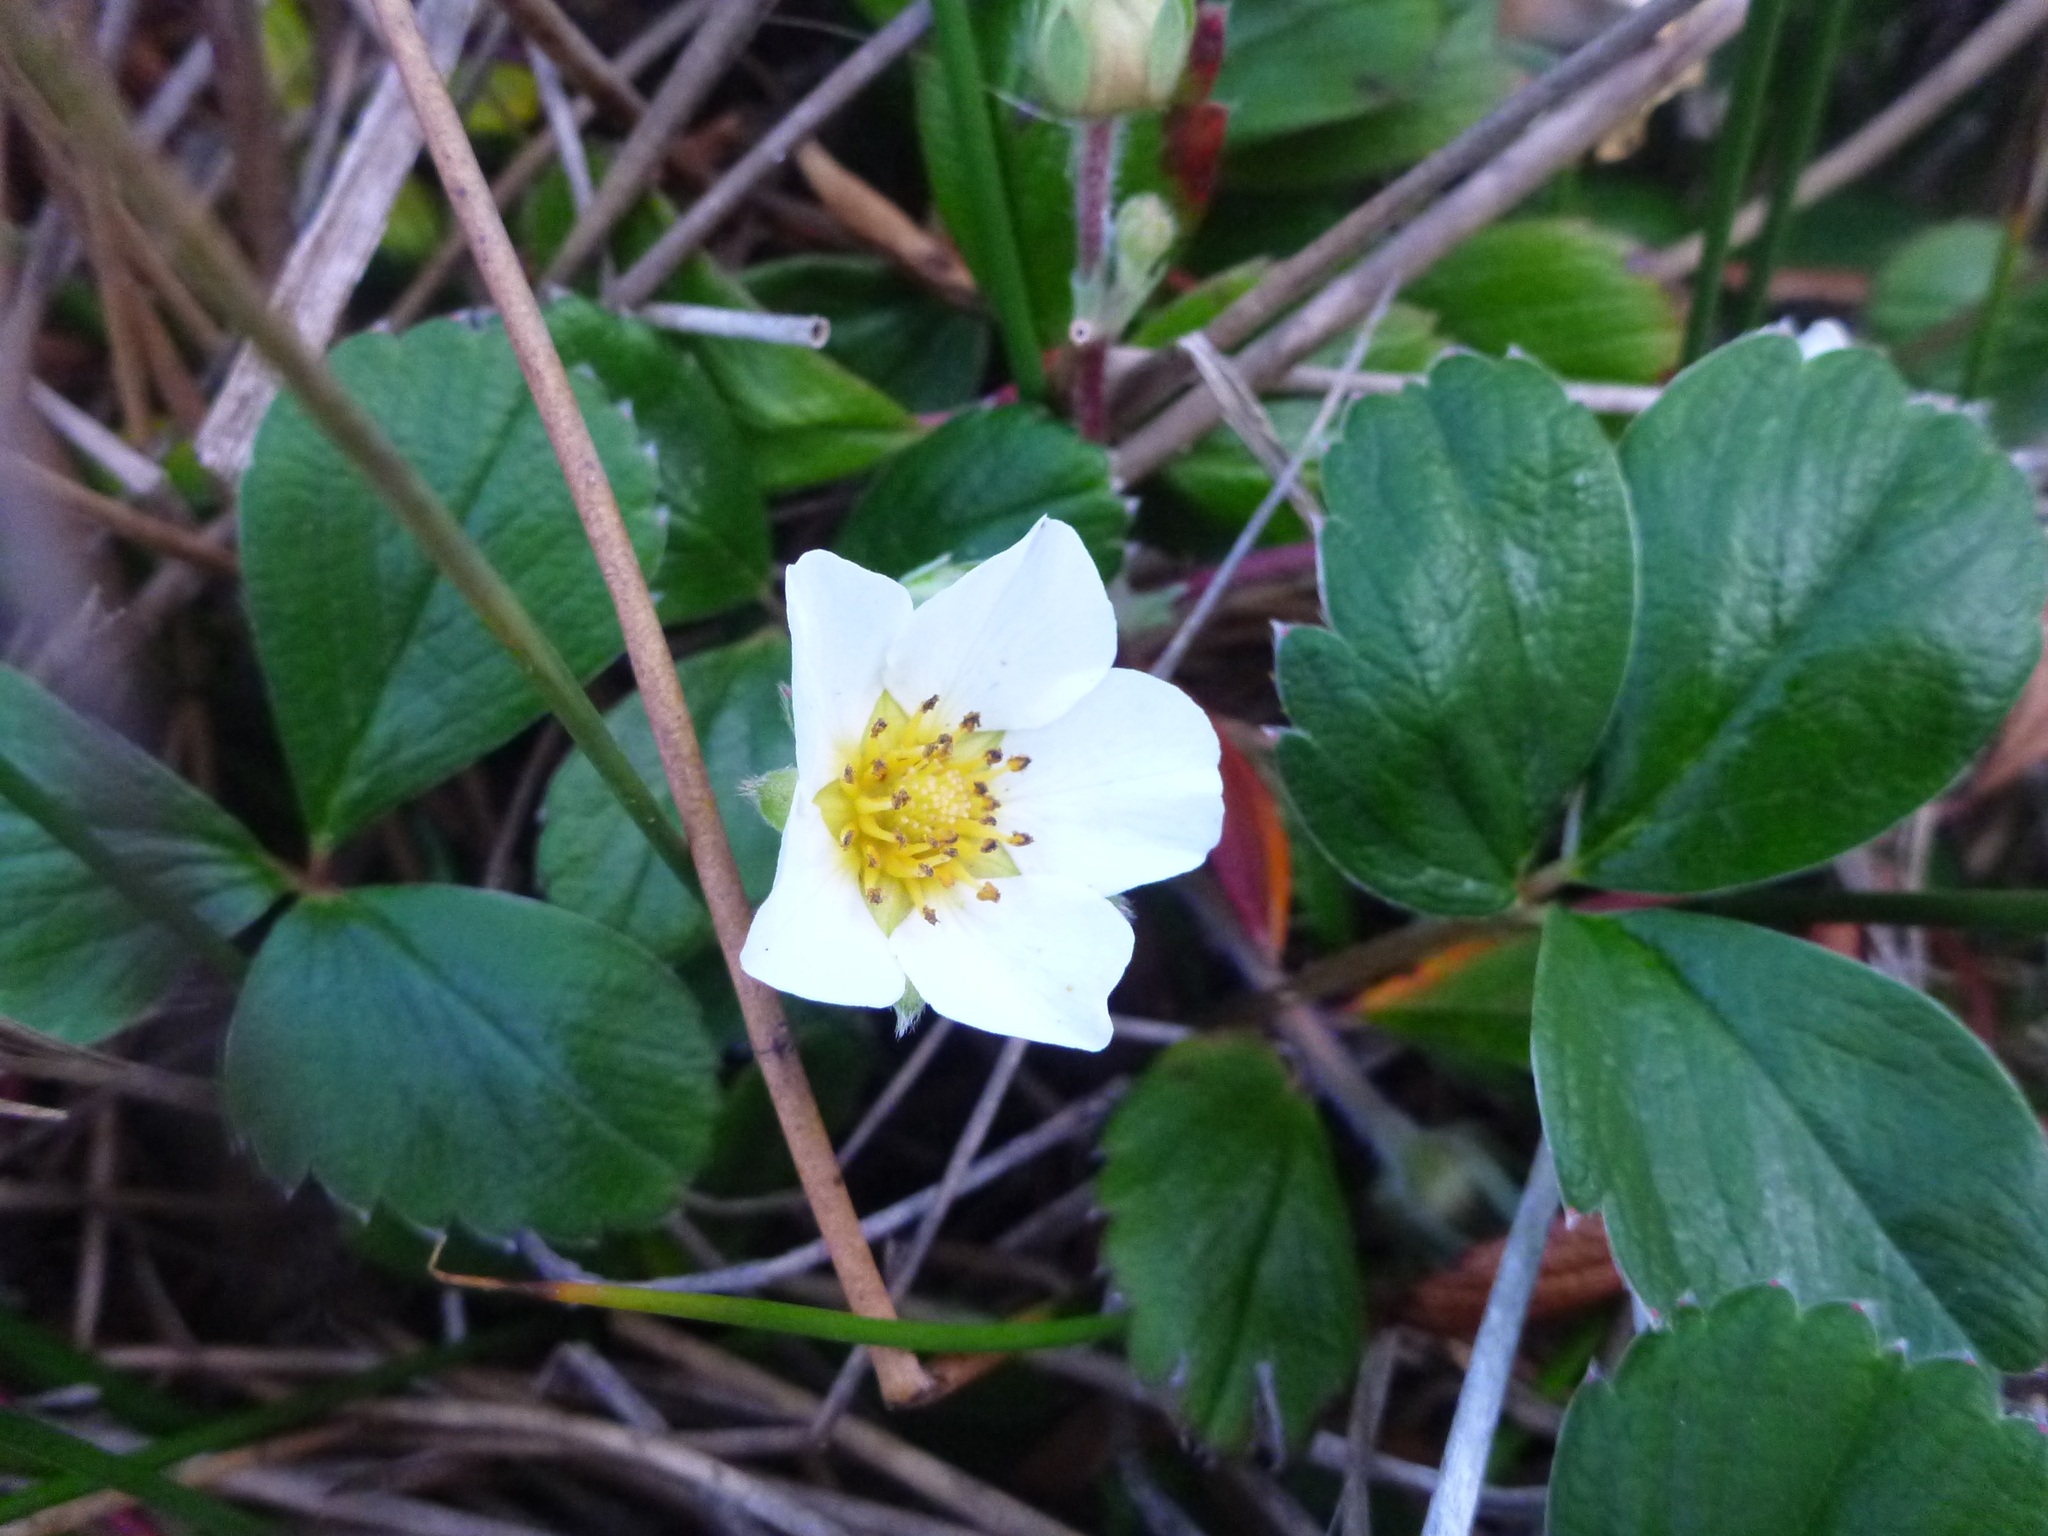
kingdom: Plantae
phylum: Tracheophyta
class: Magnoliopsida
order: Rosales
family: Rosaceae
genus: Fragaria
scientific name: Fragaria chiloensis
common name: Beach strawberry
